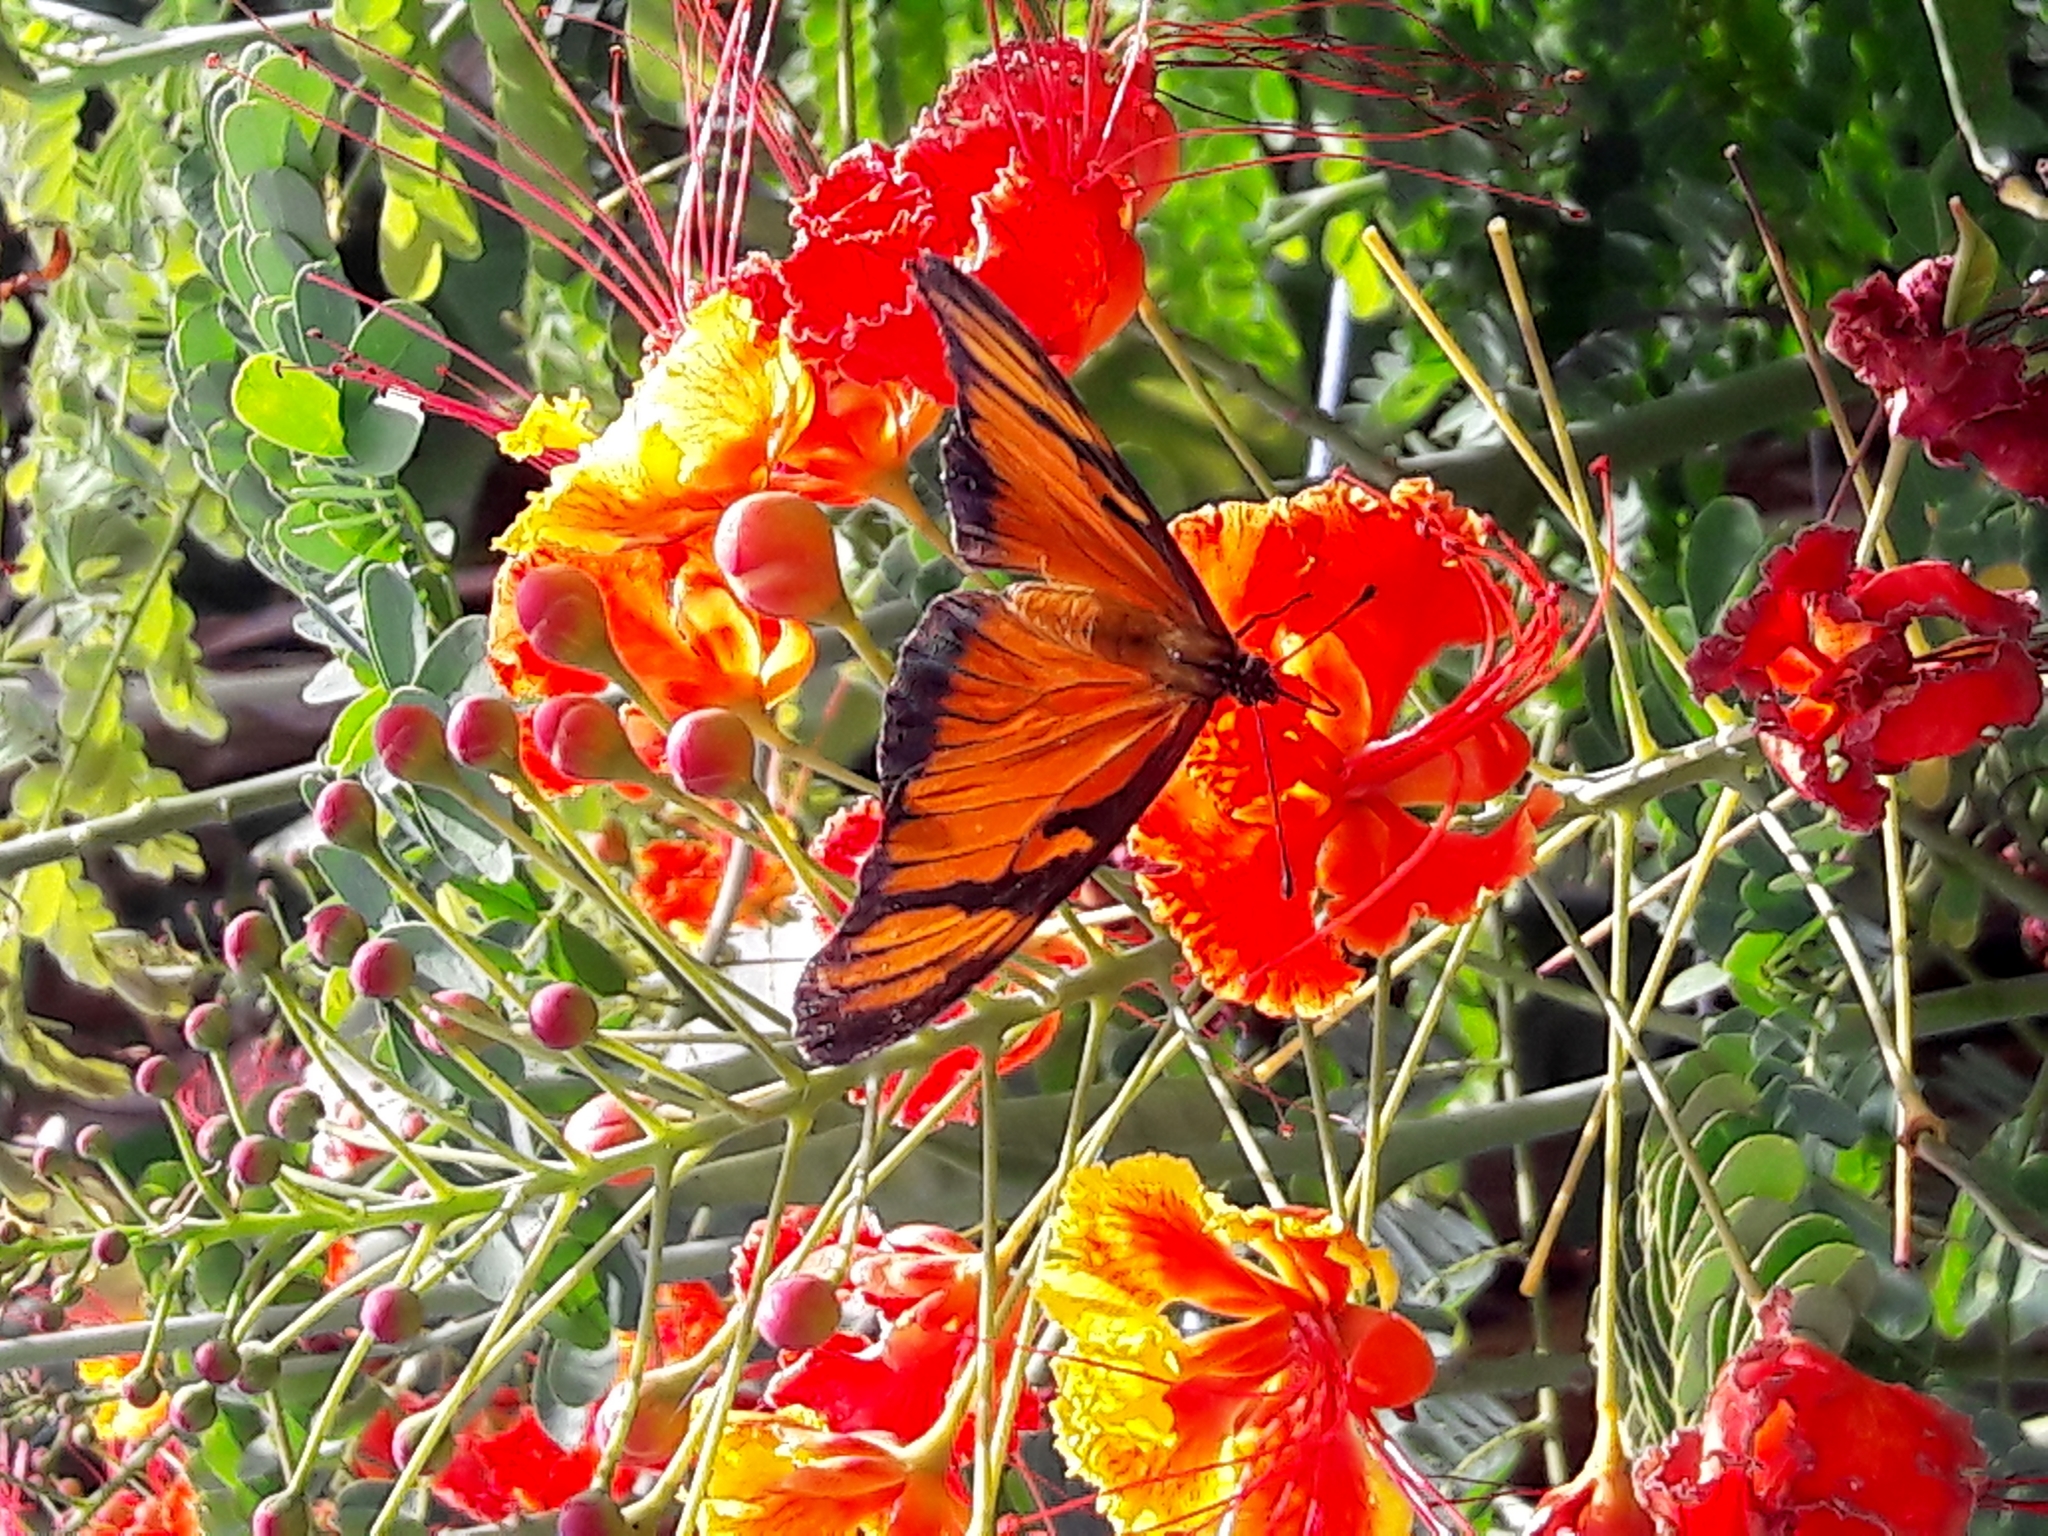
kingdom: Animalia
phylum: Arthropoda
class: Insecta
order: Lepidoptera
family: Nymphalidae
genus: Dione
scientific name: Dione juno
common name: Juno silverspot
